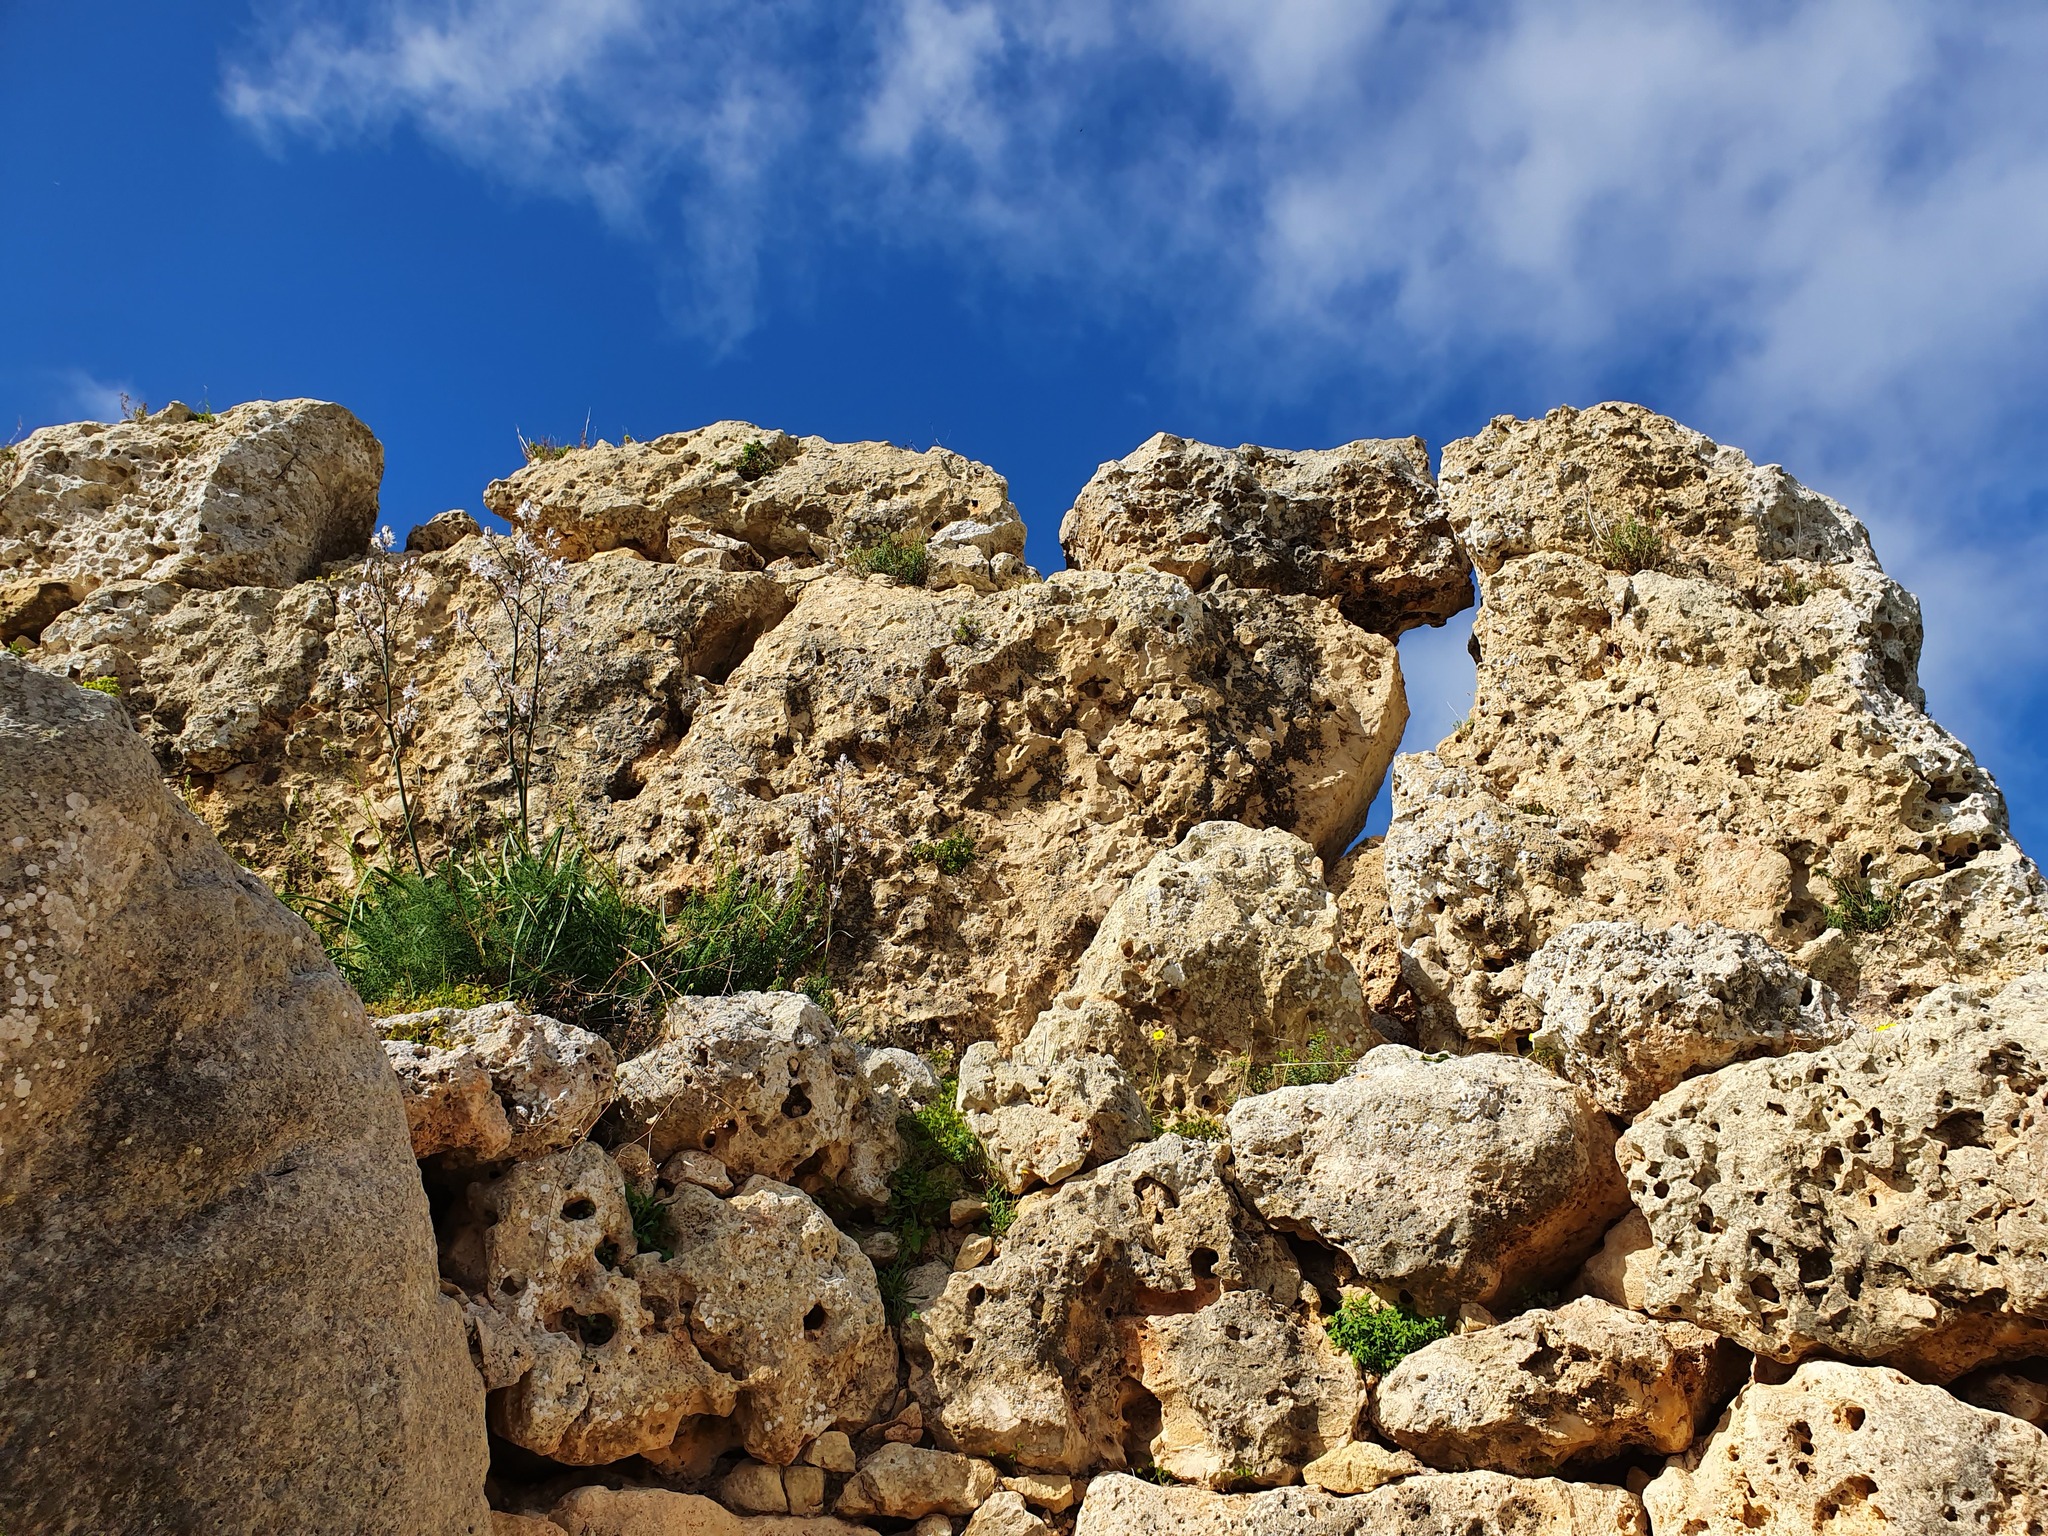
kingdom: Plantae
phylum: Tracheophyta
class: Liliopsida
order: Asparagales
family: Asphodelaceae
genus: Asphodelus
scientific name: Asphodelus ramosus
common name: Silverrod
